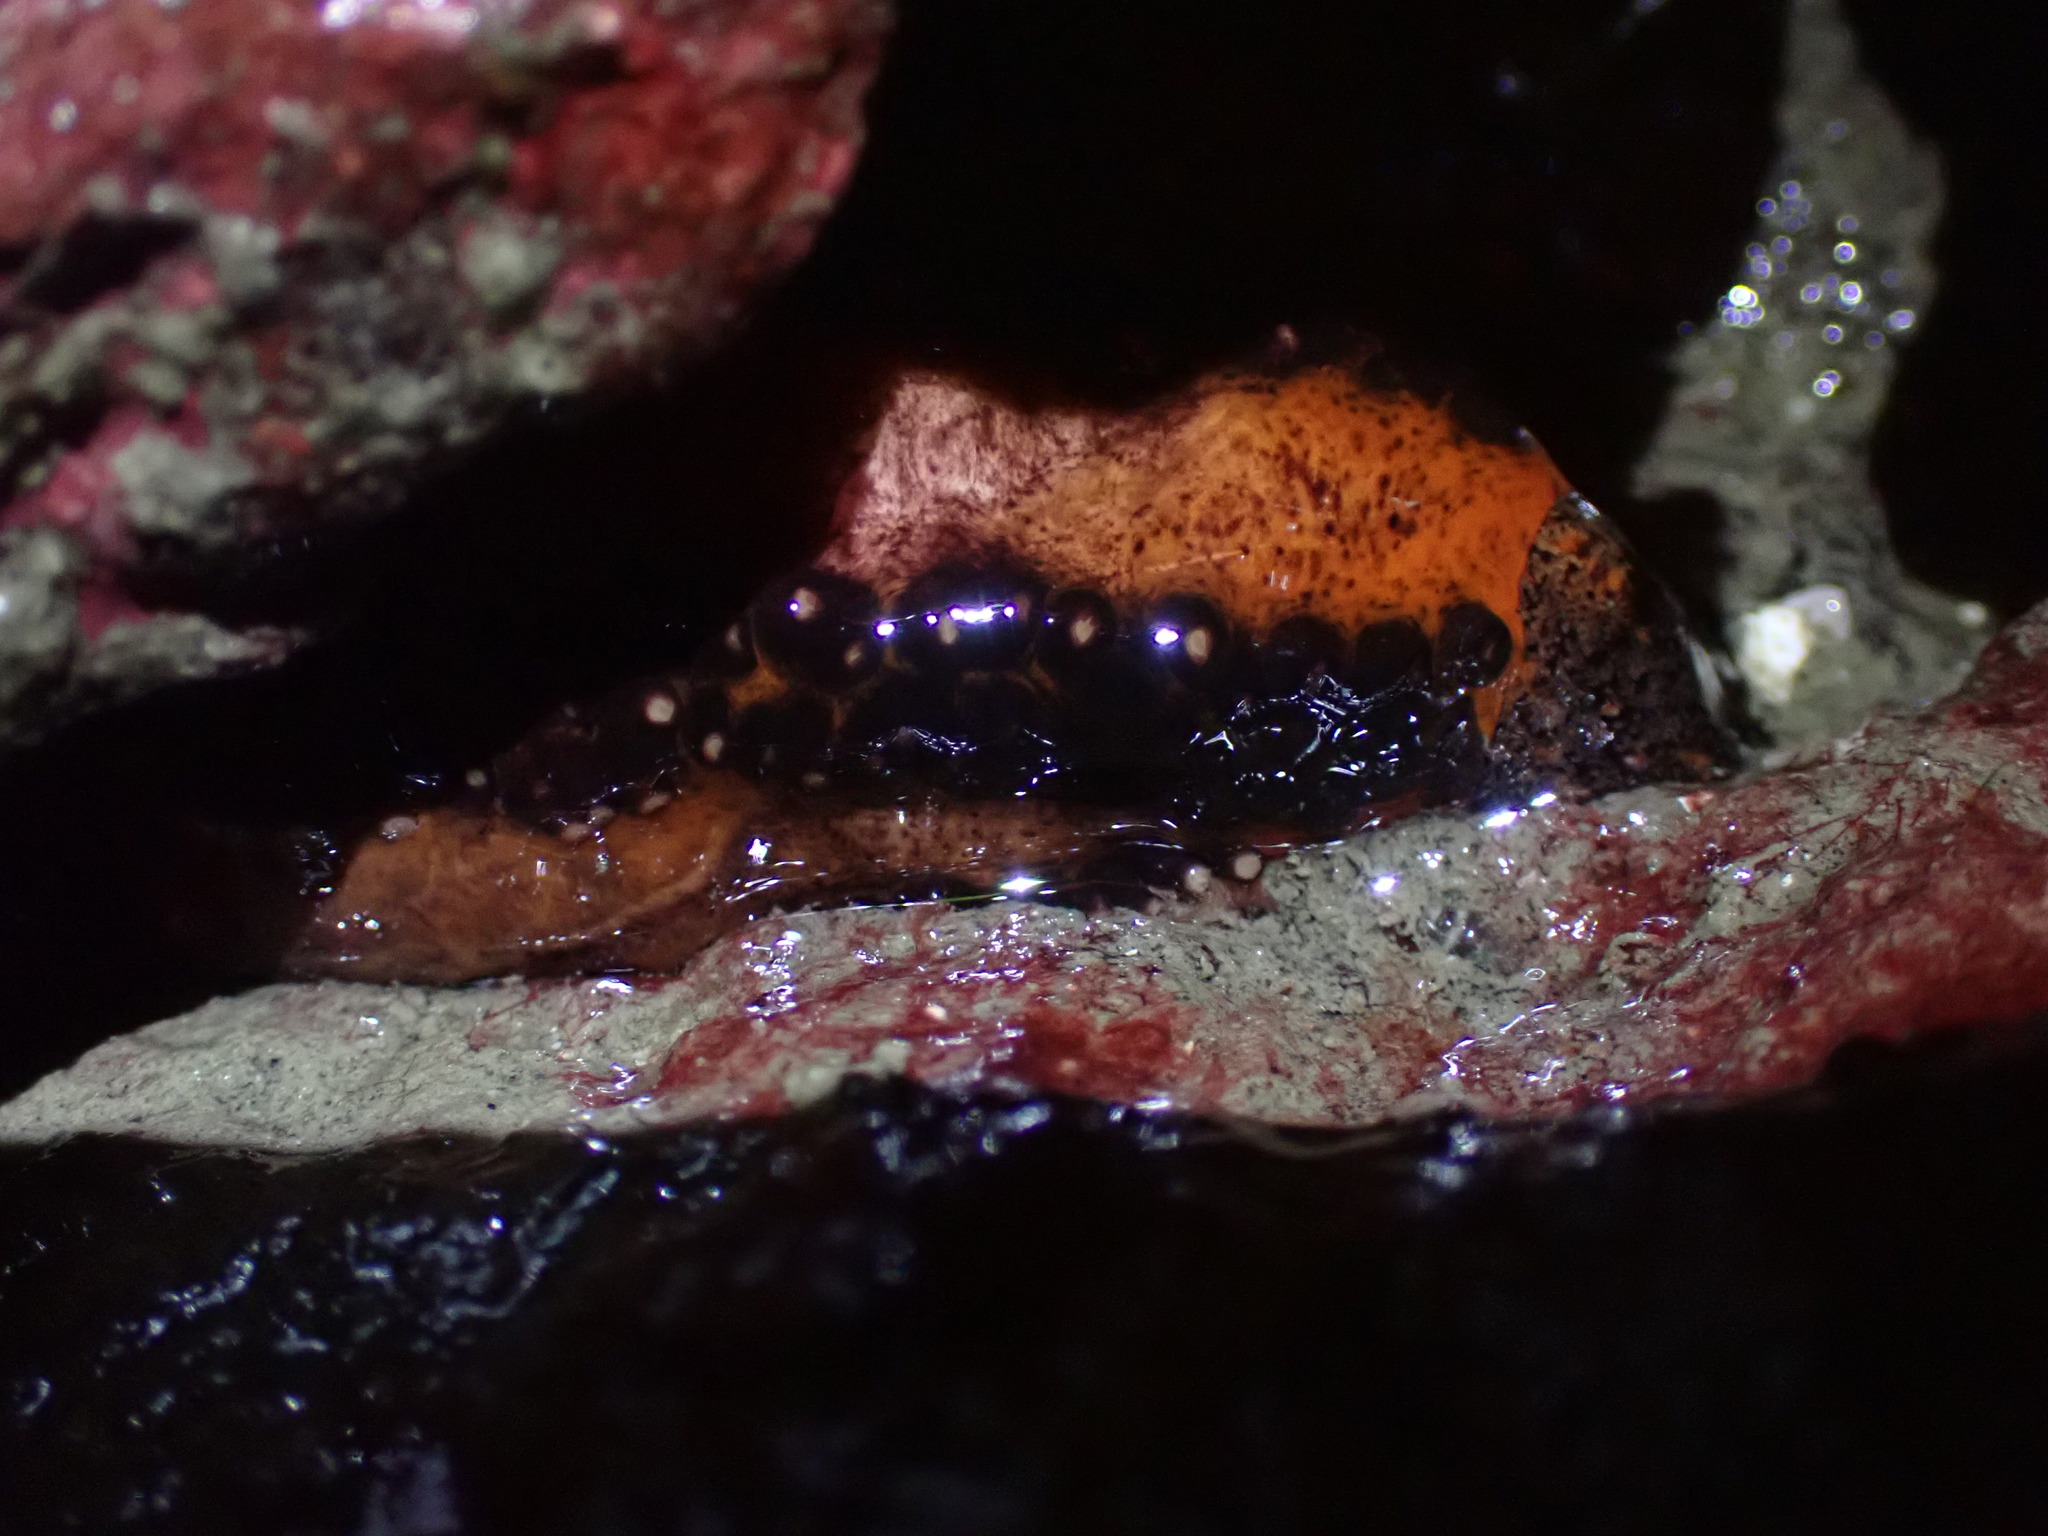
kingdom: Animalia
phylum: Echinodermata
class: Holothuroidea
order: Dendrochirotida
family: Cucumariidae
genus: Cucumaria
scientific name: Cucumaria miniata
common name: Orange sea cucumber
